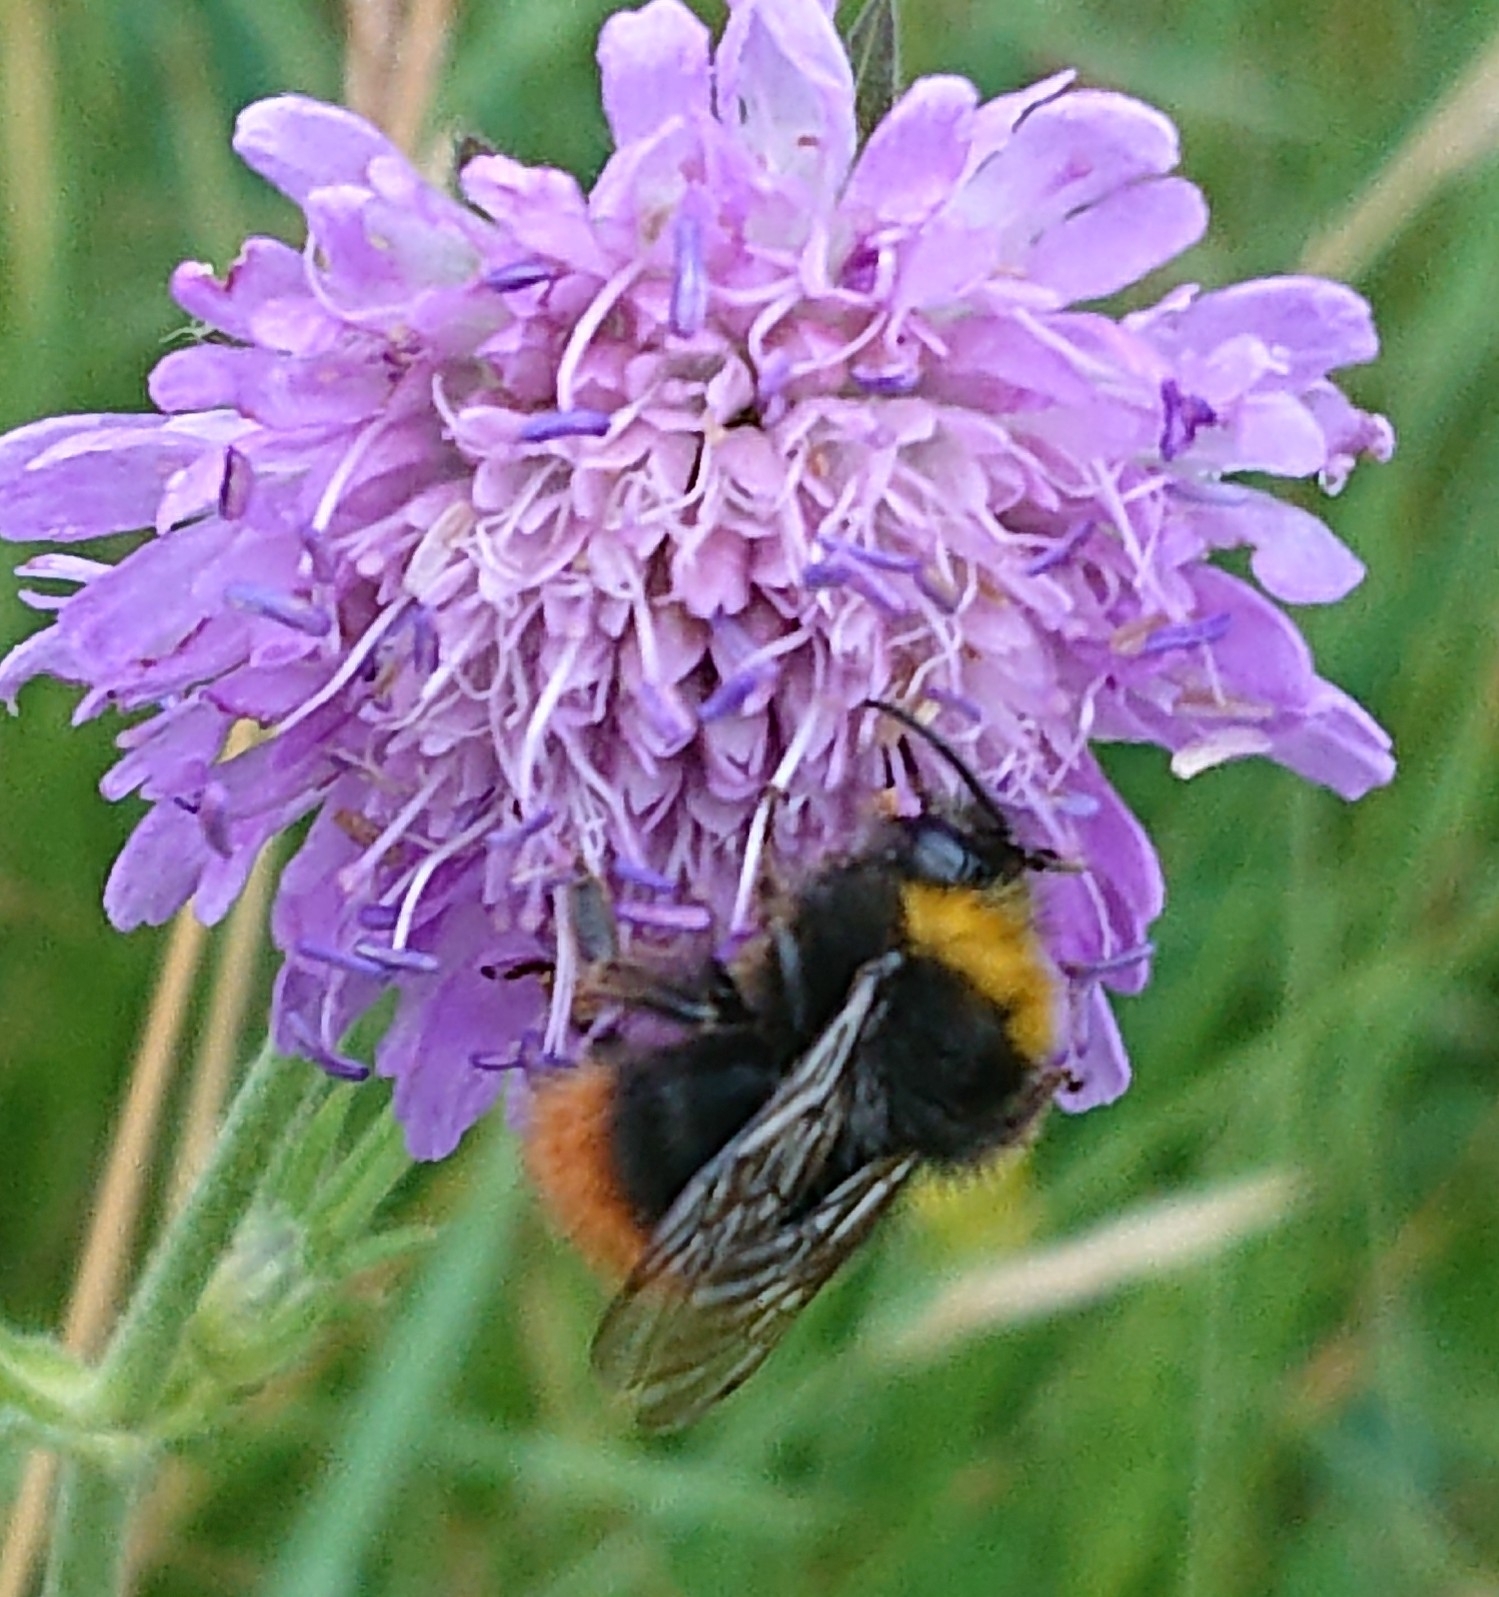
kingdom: Animalia
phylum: Arthropoda
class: Insecta
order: Hymenoptera
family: Apidae
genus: Bombus
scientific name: Bombus pratorum
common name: Early humble-bee
